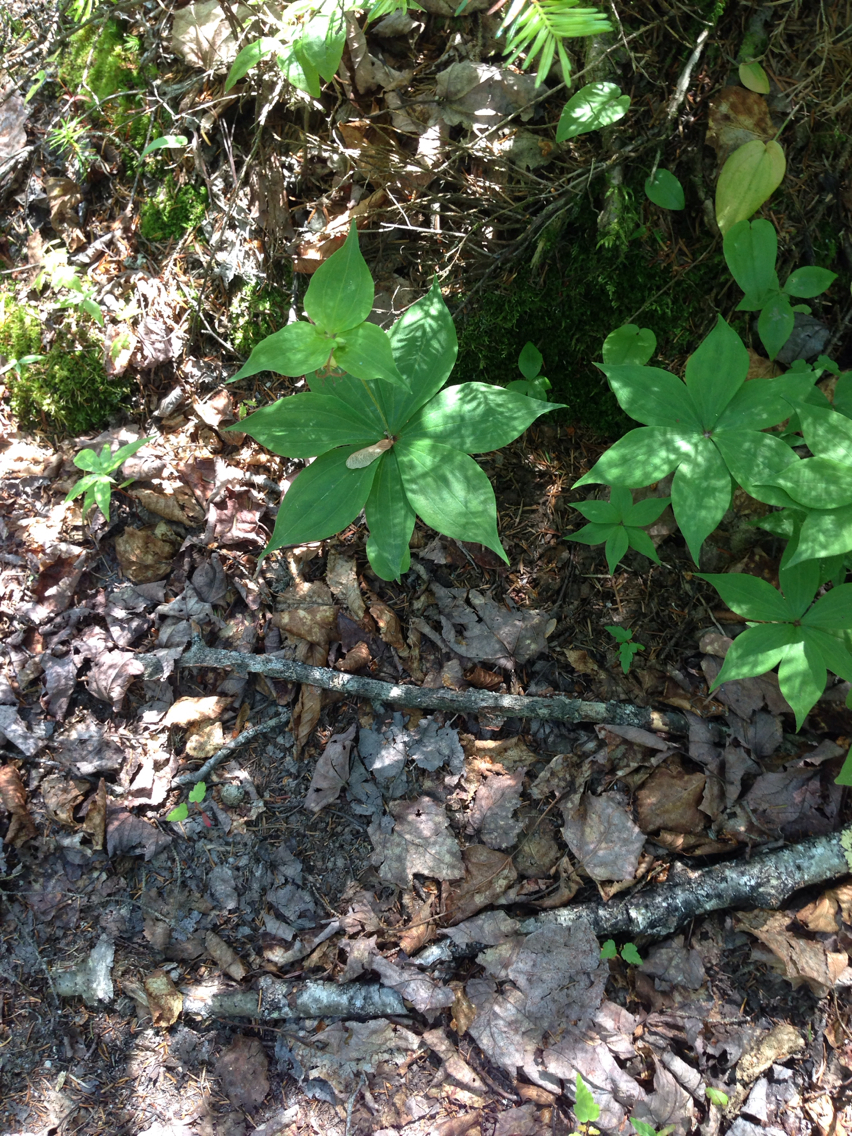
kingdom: Plantae
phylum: Tracheophyta
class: Liliopsida
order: Liliales
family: Liliaceae
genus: Medeola
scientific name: Medeola virginiana
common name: Indian cucumber-root
